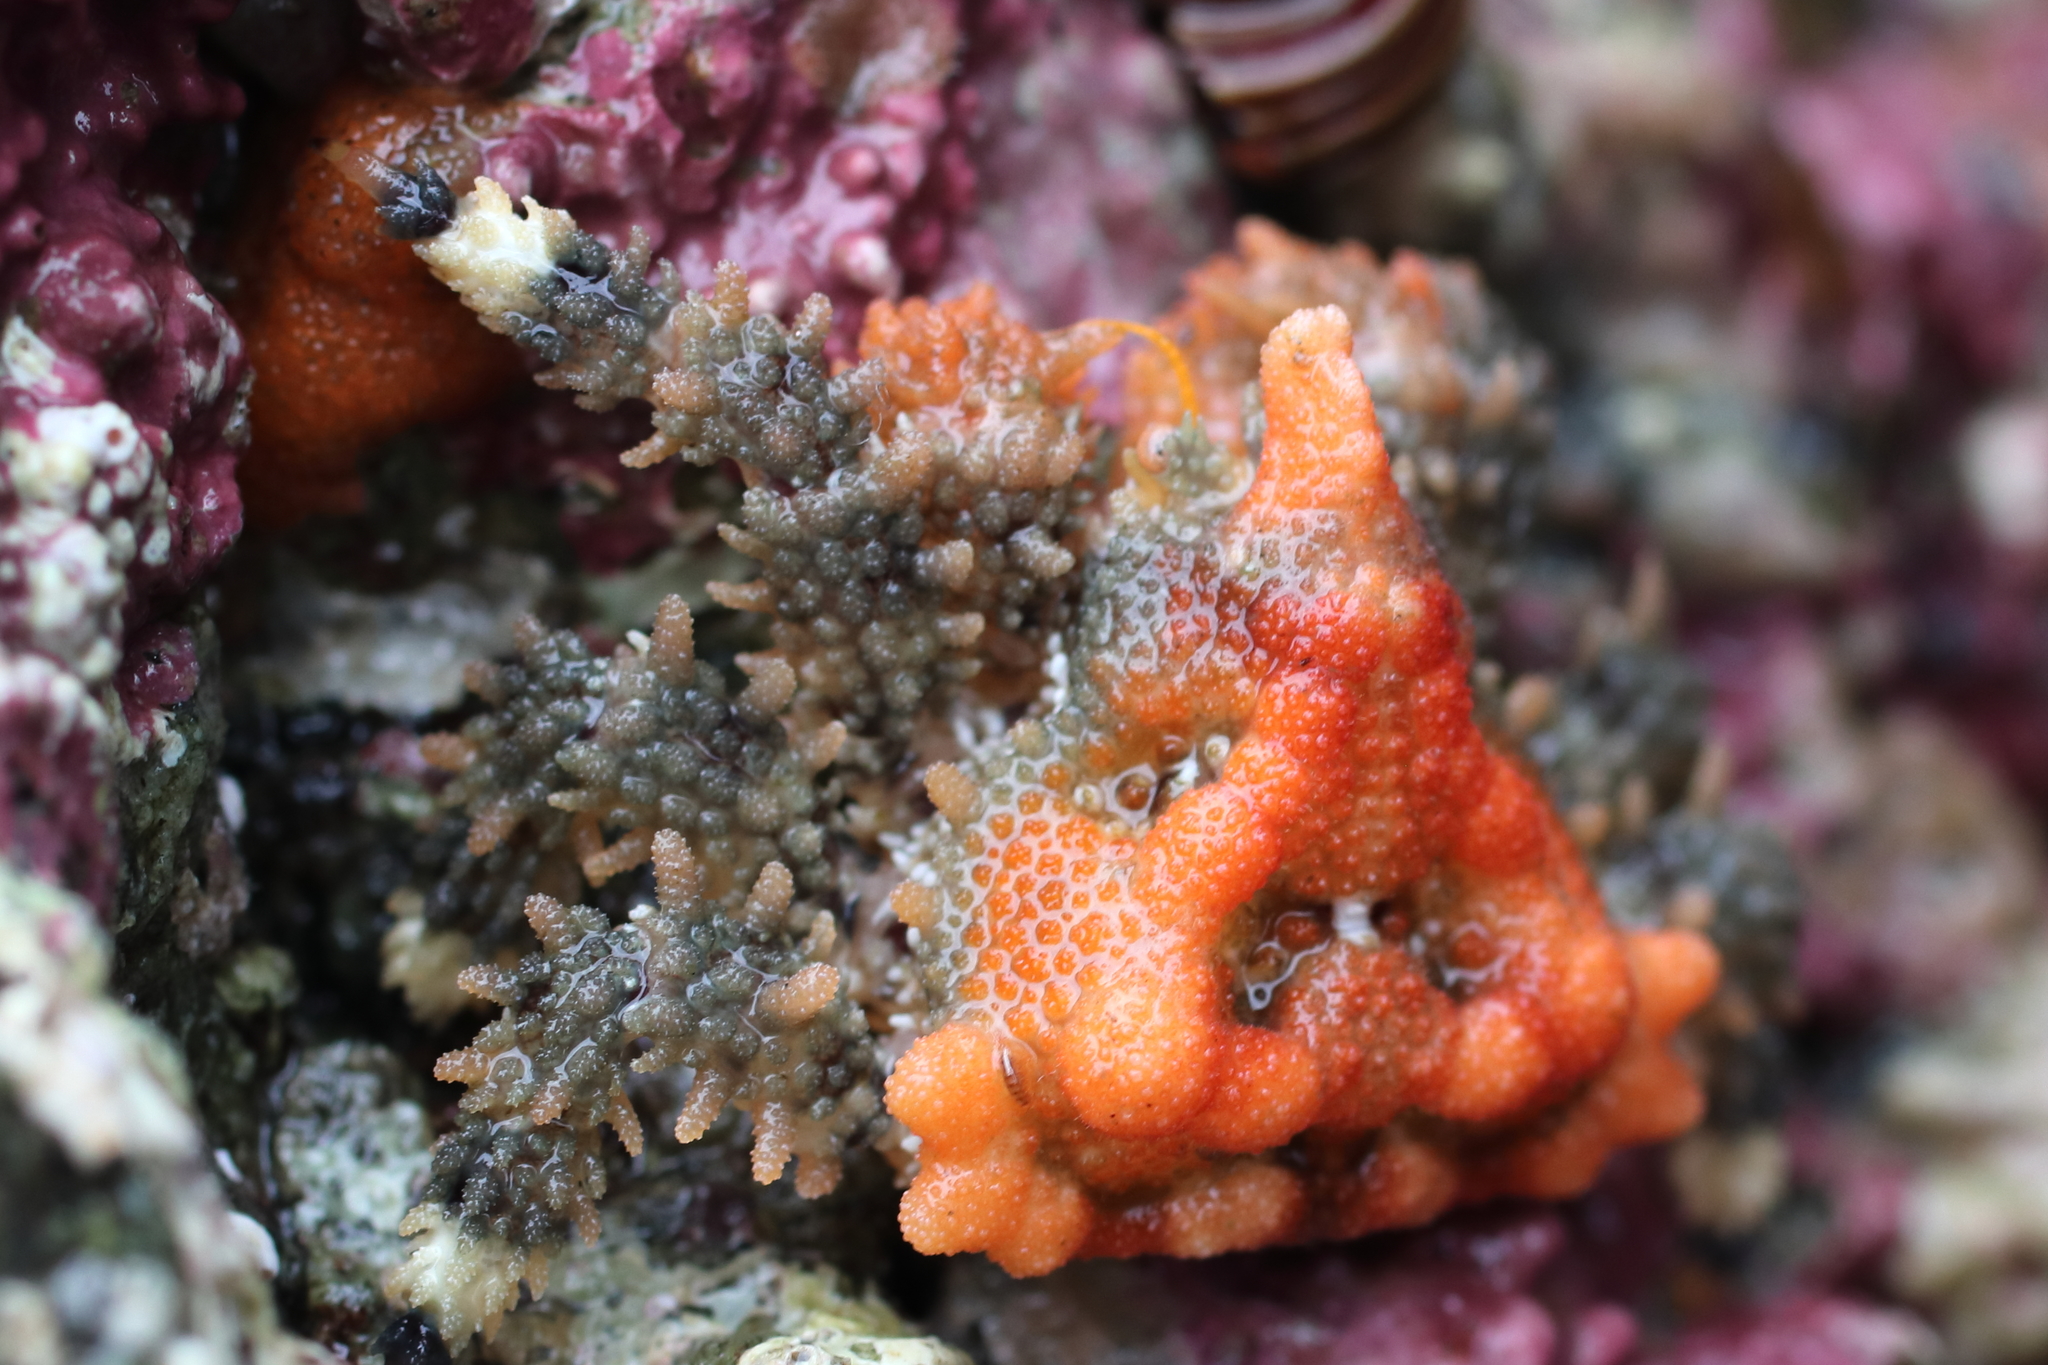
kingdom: Animalia
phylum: Arthropoda
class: Malacostraca
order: Decapoda
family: Lithodidae
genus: Phyllolithodes
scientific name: Phyllolithodes papillosus
